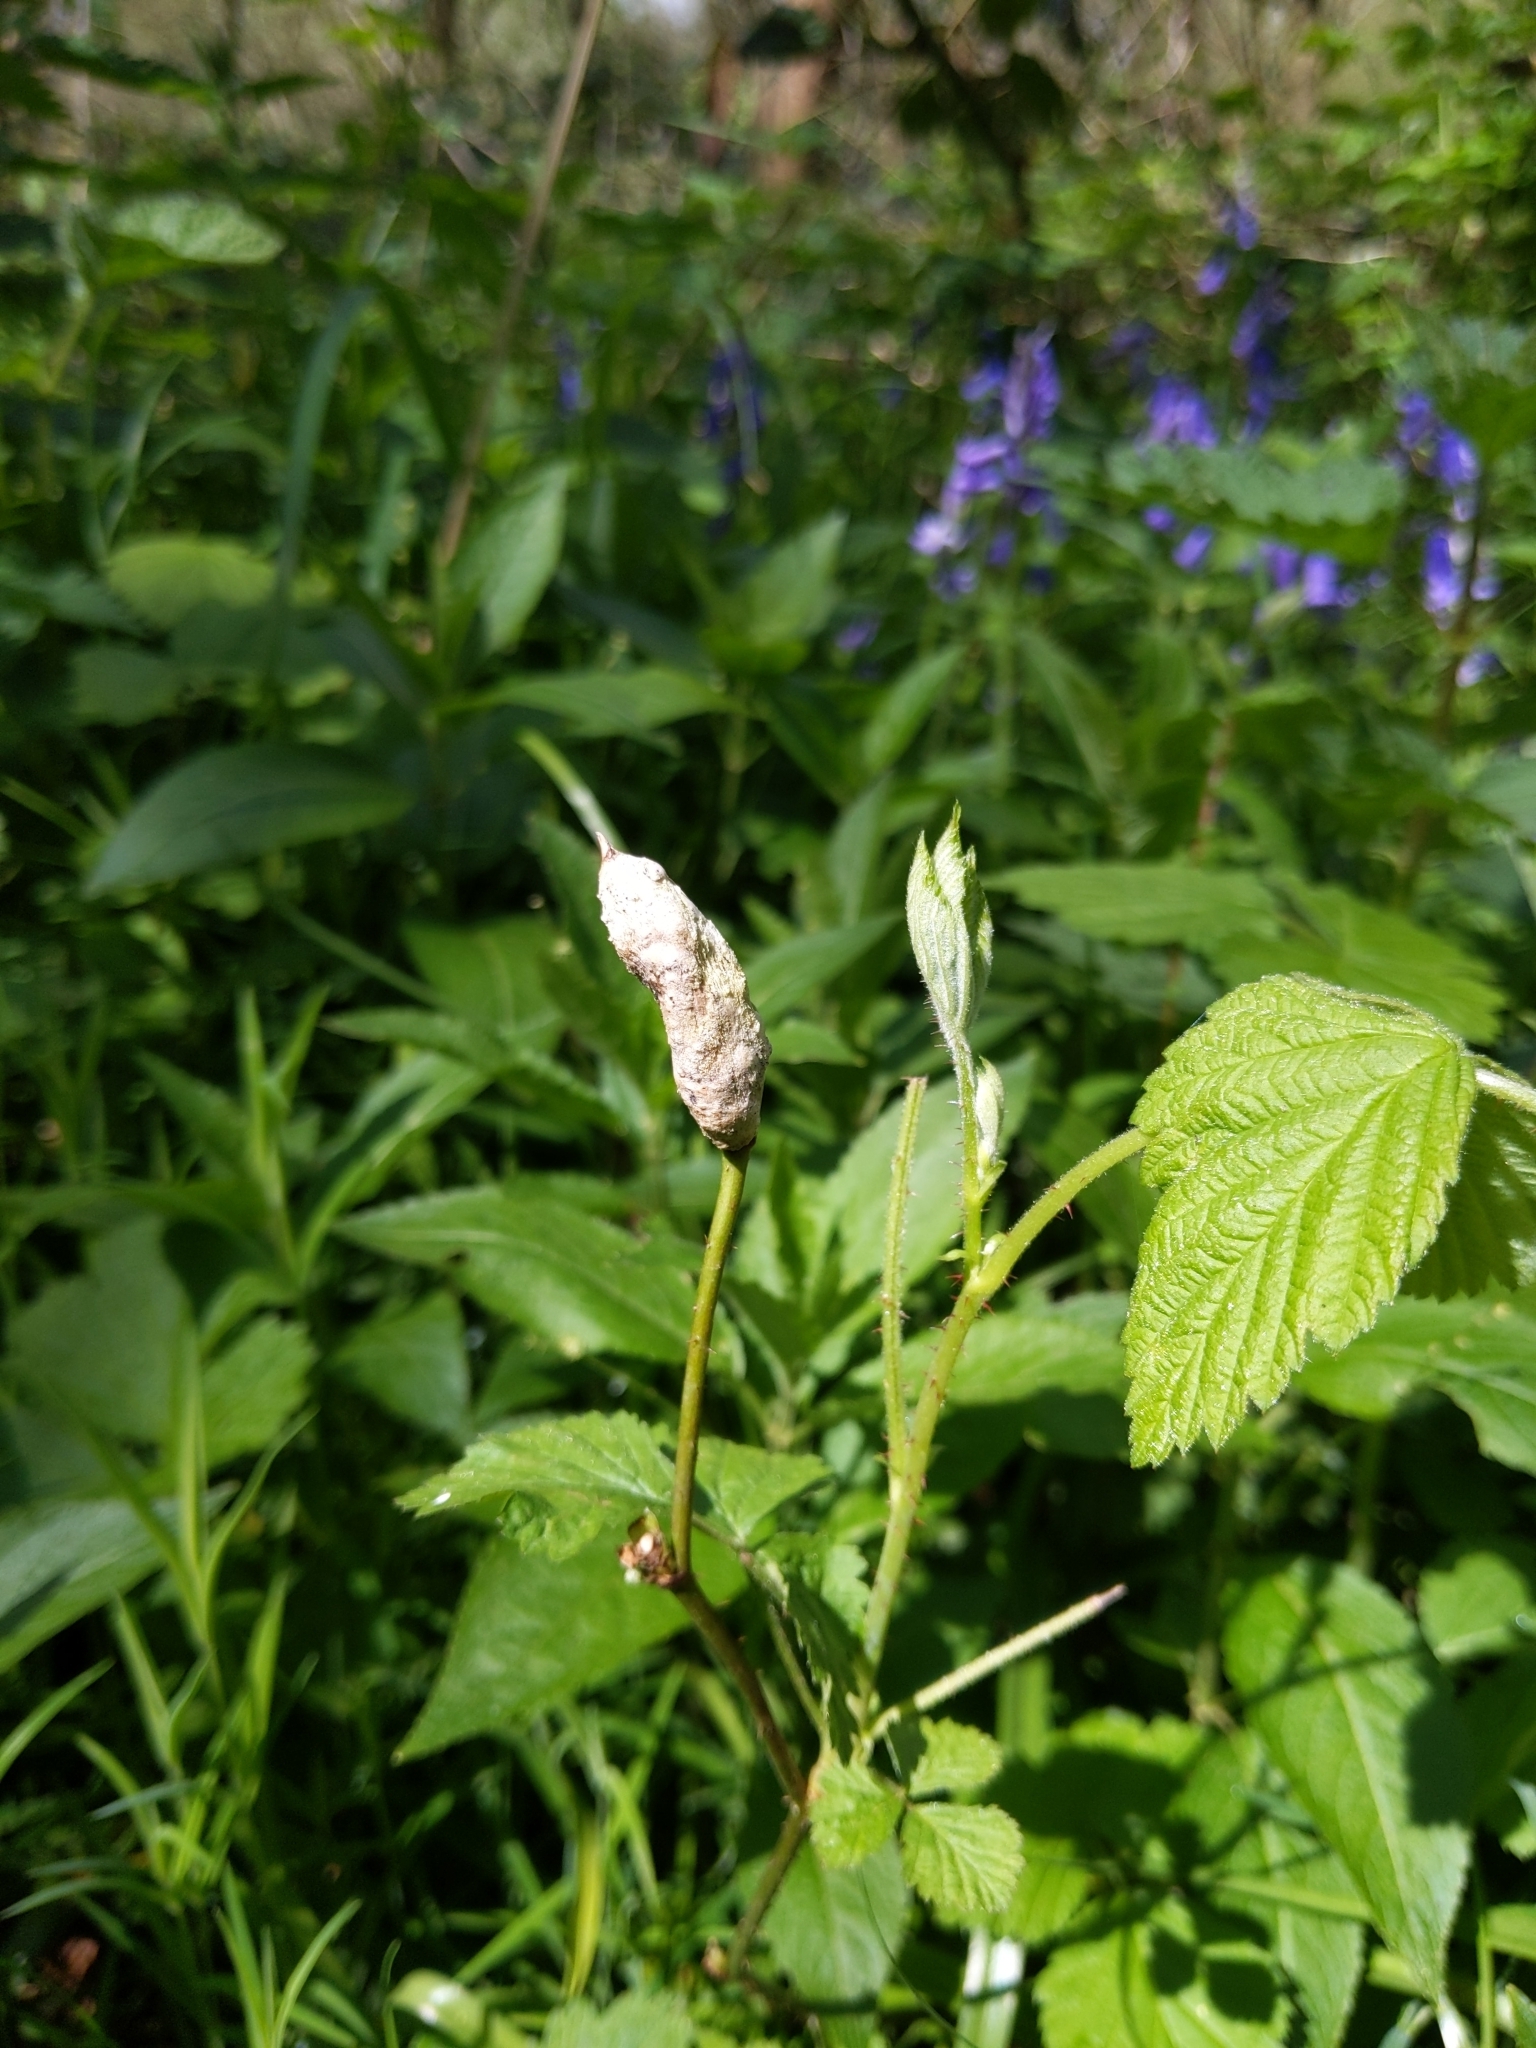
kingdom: Animalia
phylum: Arthropoda
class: Insecta
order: Hymenoptera
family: Cynipidae
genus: Diastrophus
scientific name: Diastrophus rubi
